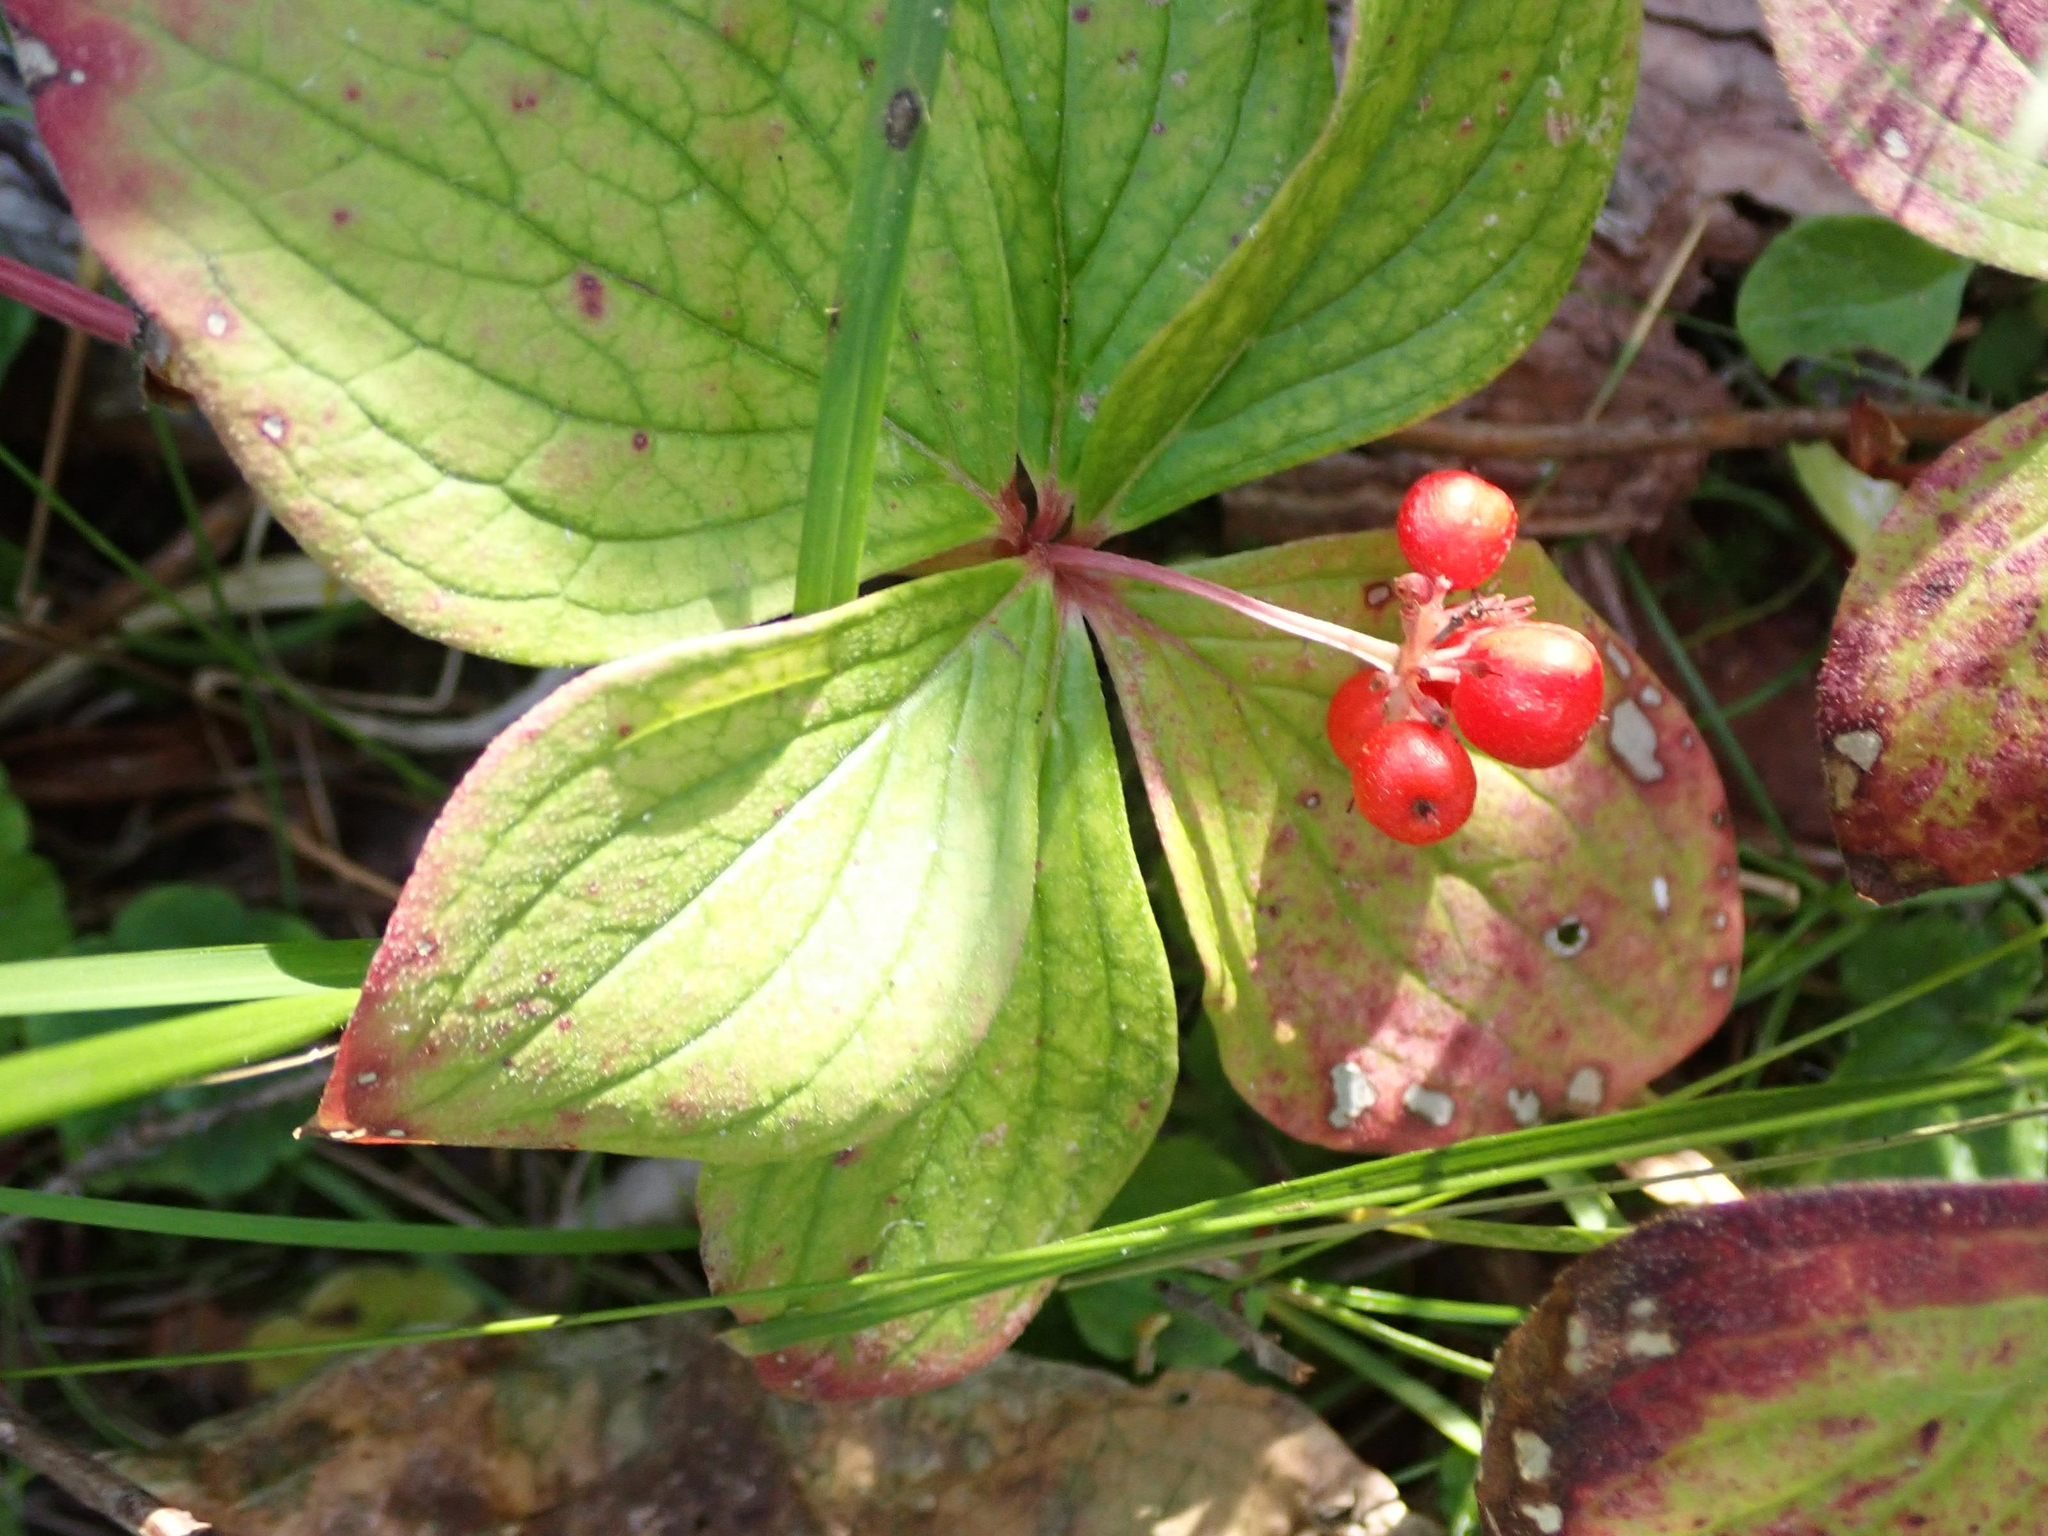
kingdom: Plantae
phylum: Tracheophyta
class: Magnoliopsida
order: Cornales
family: Cornaceae
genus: Cornus
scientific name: Cornus canadensis
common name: Creeping dogwood
